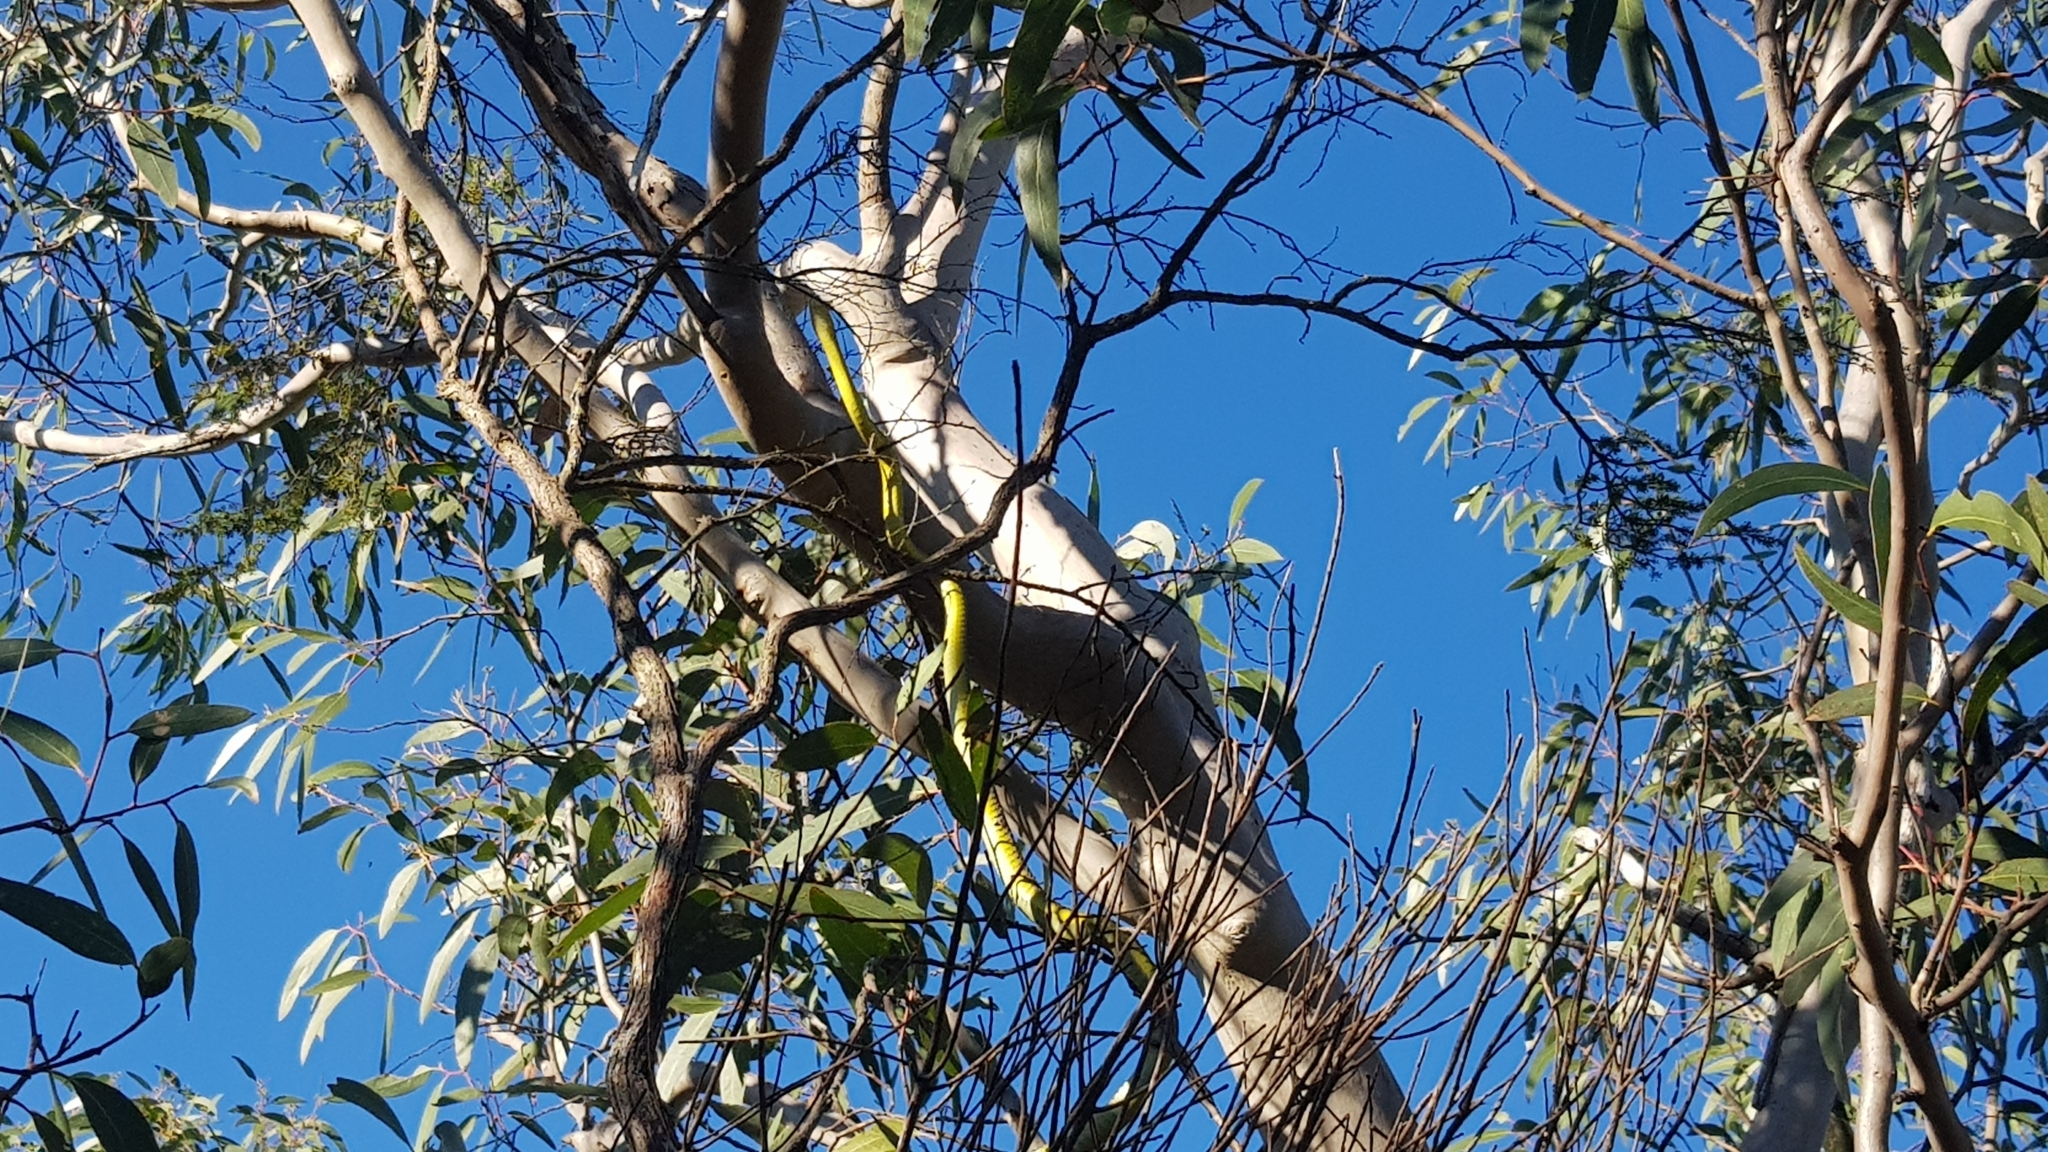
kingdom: Animalia
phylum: Chordata
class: Squamata
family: Colubridae
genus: Dendrelaphis
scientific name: Dendrelaphis punctulatus
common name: Common tree snake
